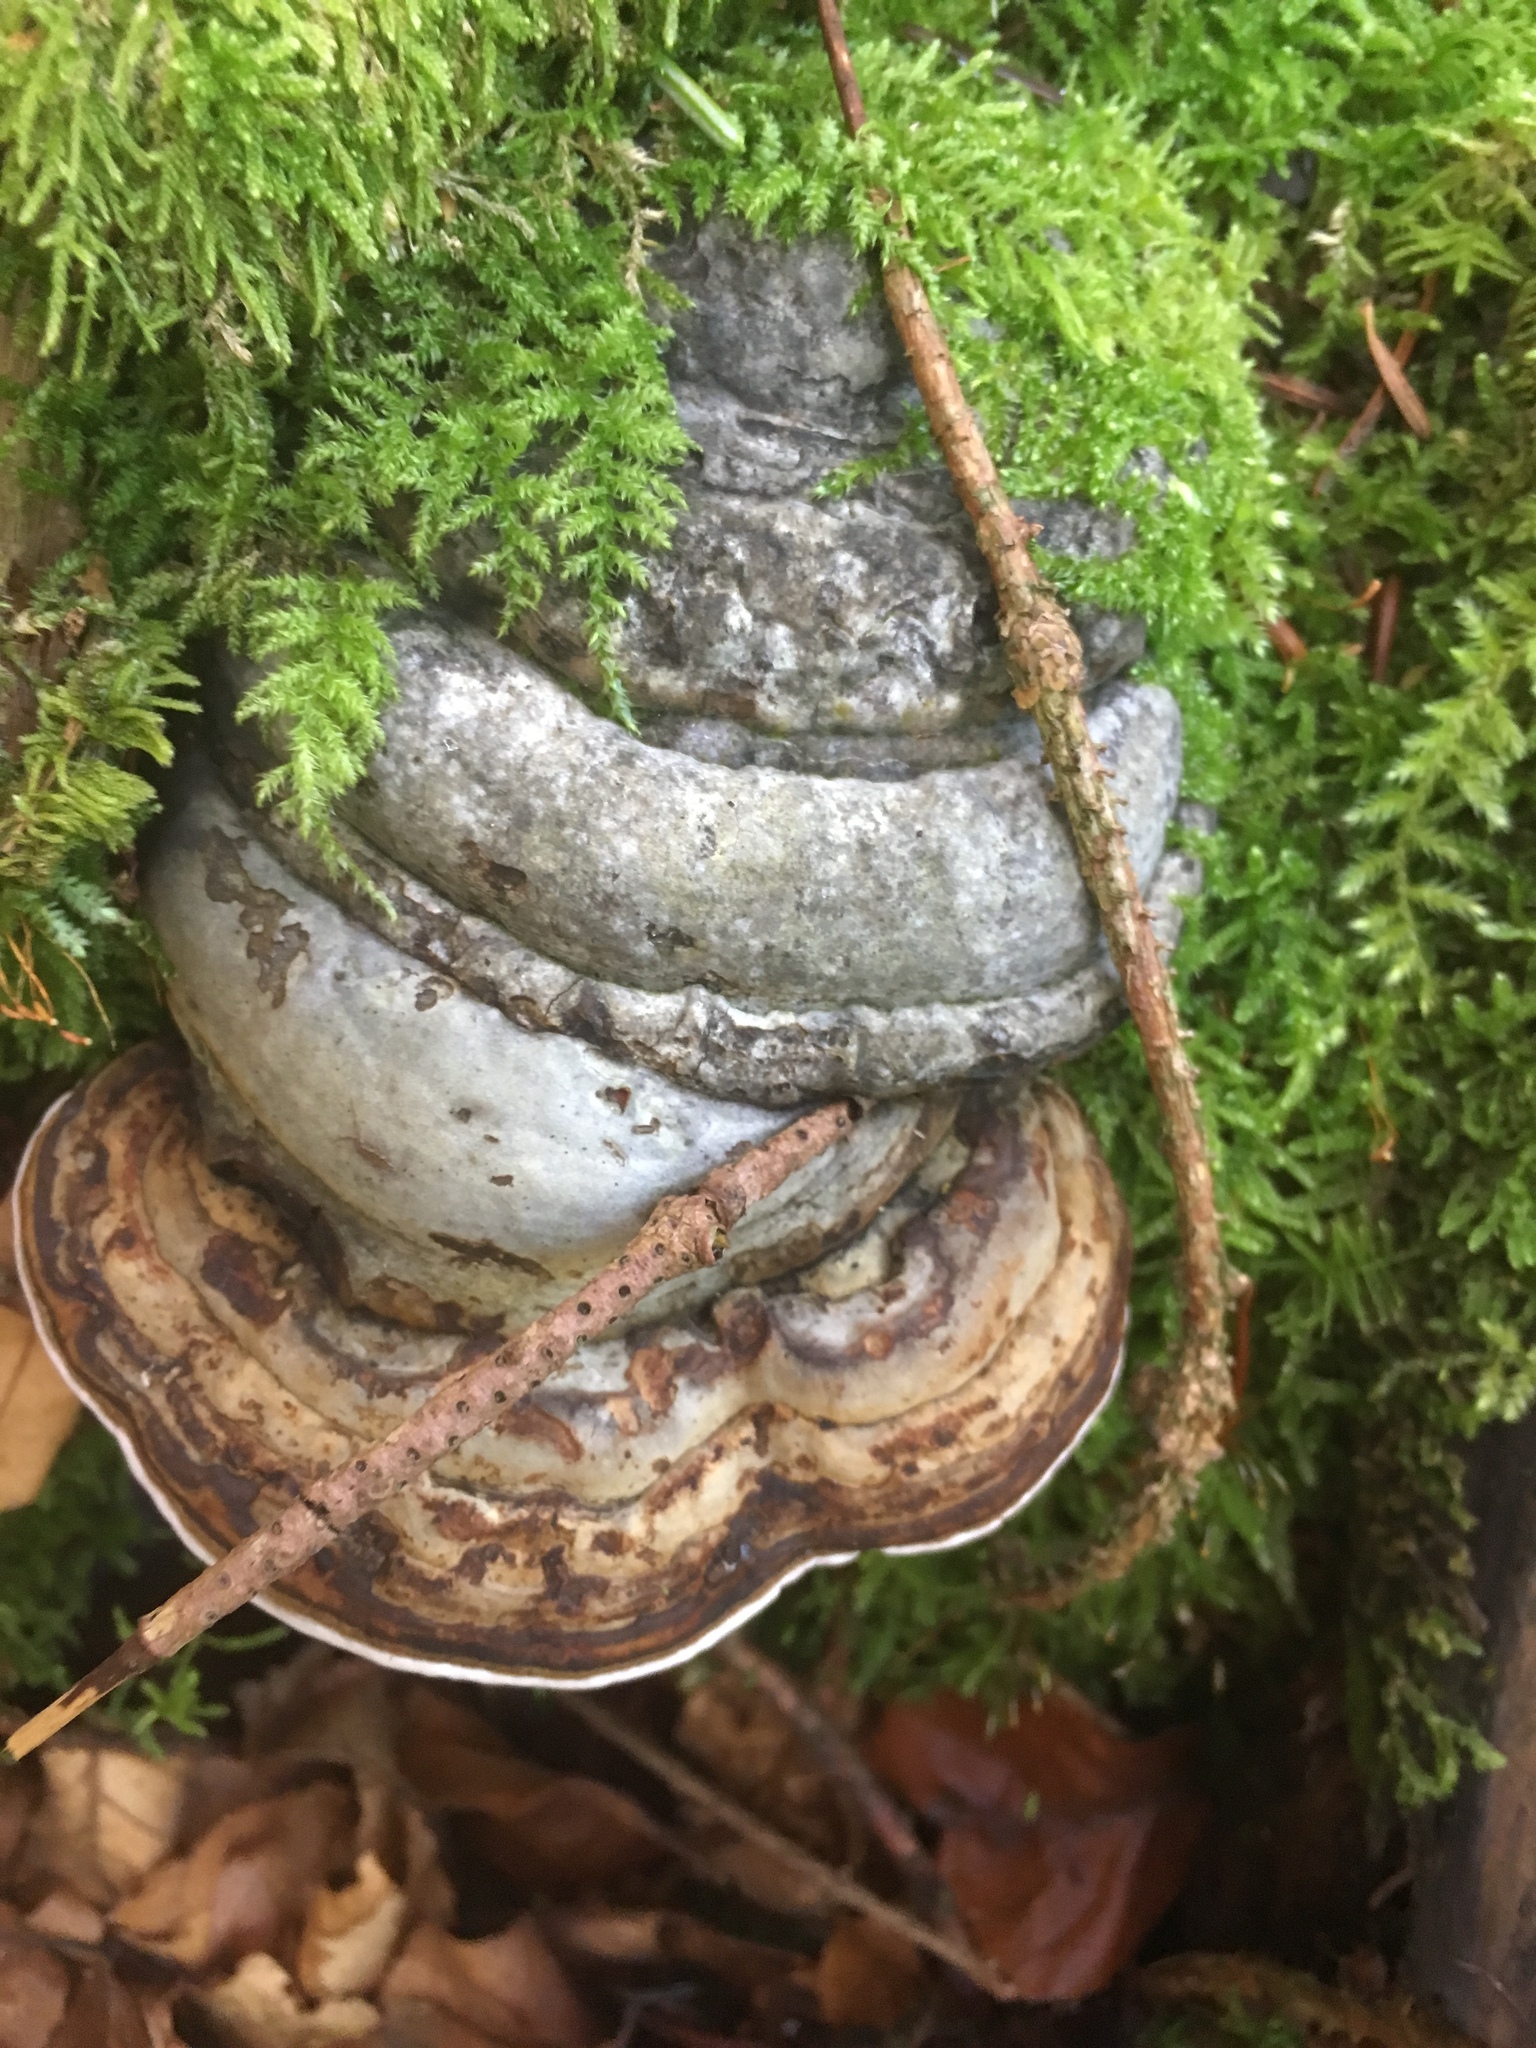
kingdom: Fungi
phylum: Basidiomycota
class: Agaricomycetes
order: Polyporales
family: Polyporaceae
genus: Fomes
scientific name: Fomes fomentarius
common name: Hoof fungus
